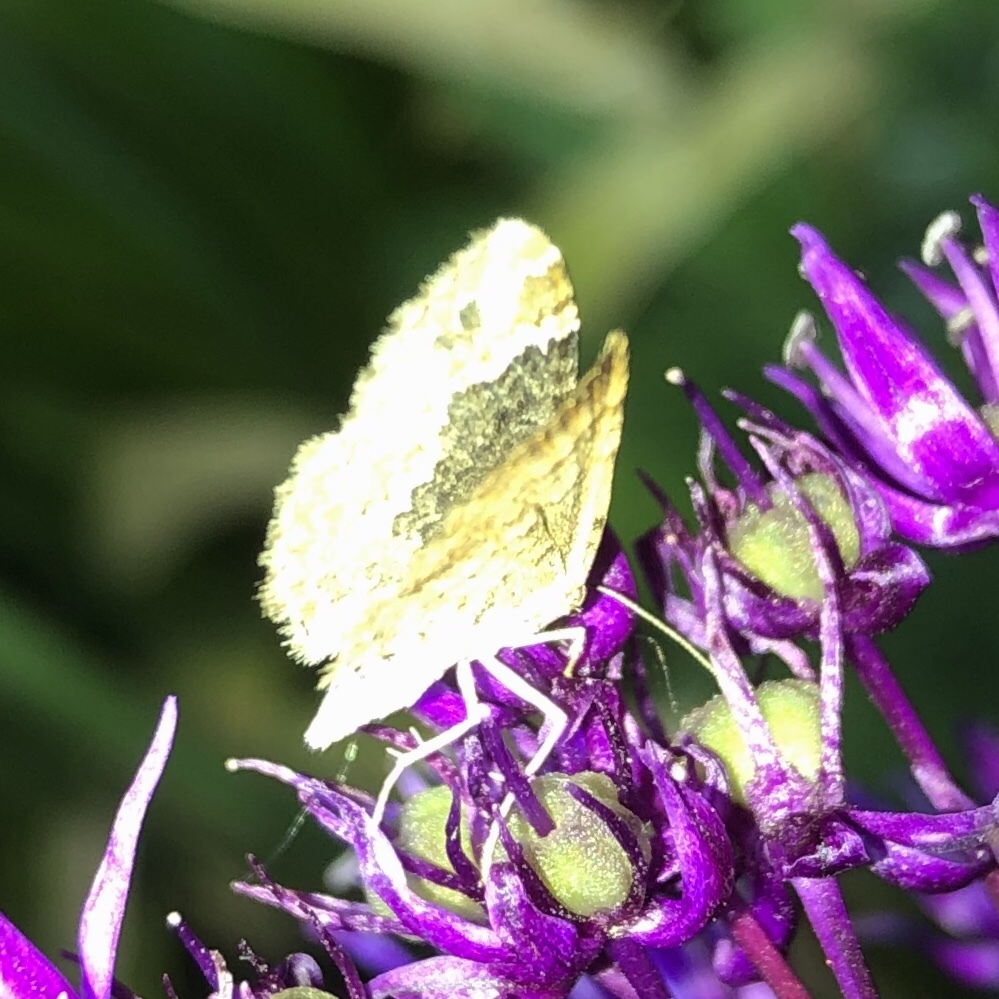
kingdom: Animalia
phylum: Arthropoda
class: Insecta
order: Lepidoptera
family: Geometridae
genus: Epirrhoe
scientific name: Epirrhoe alternata
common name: Common carpet
